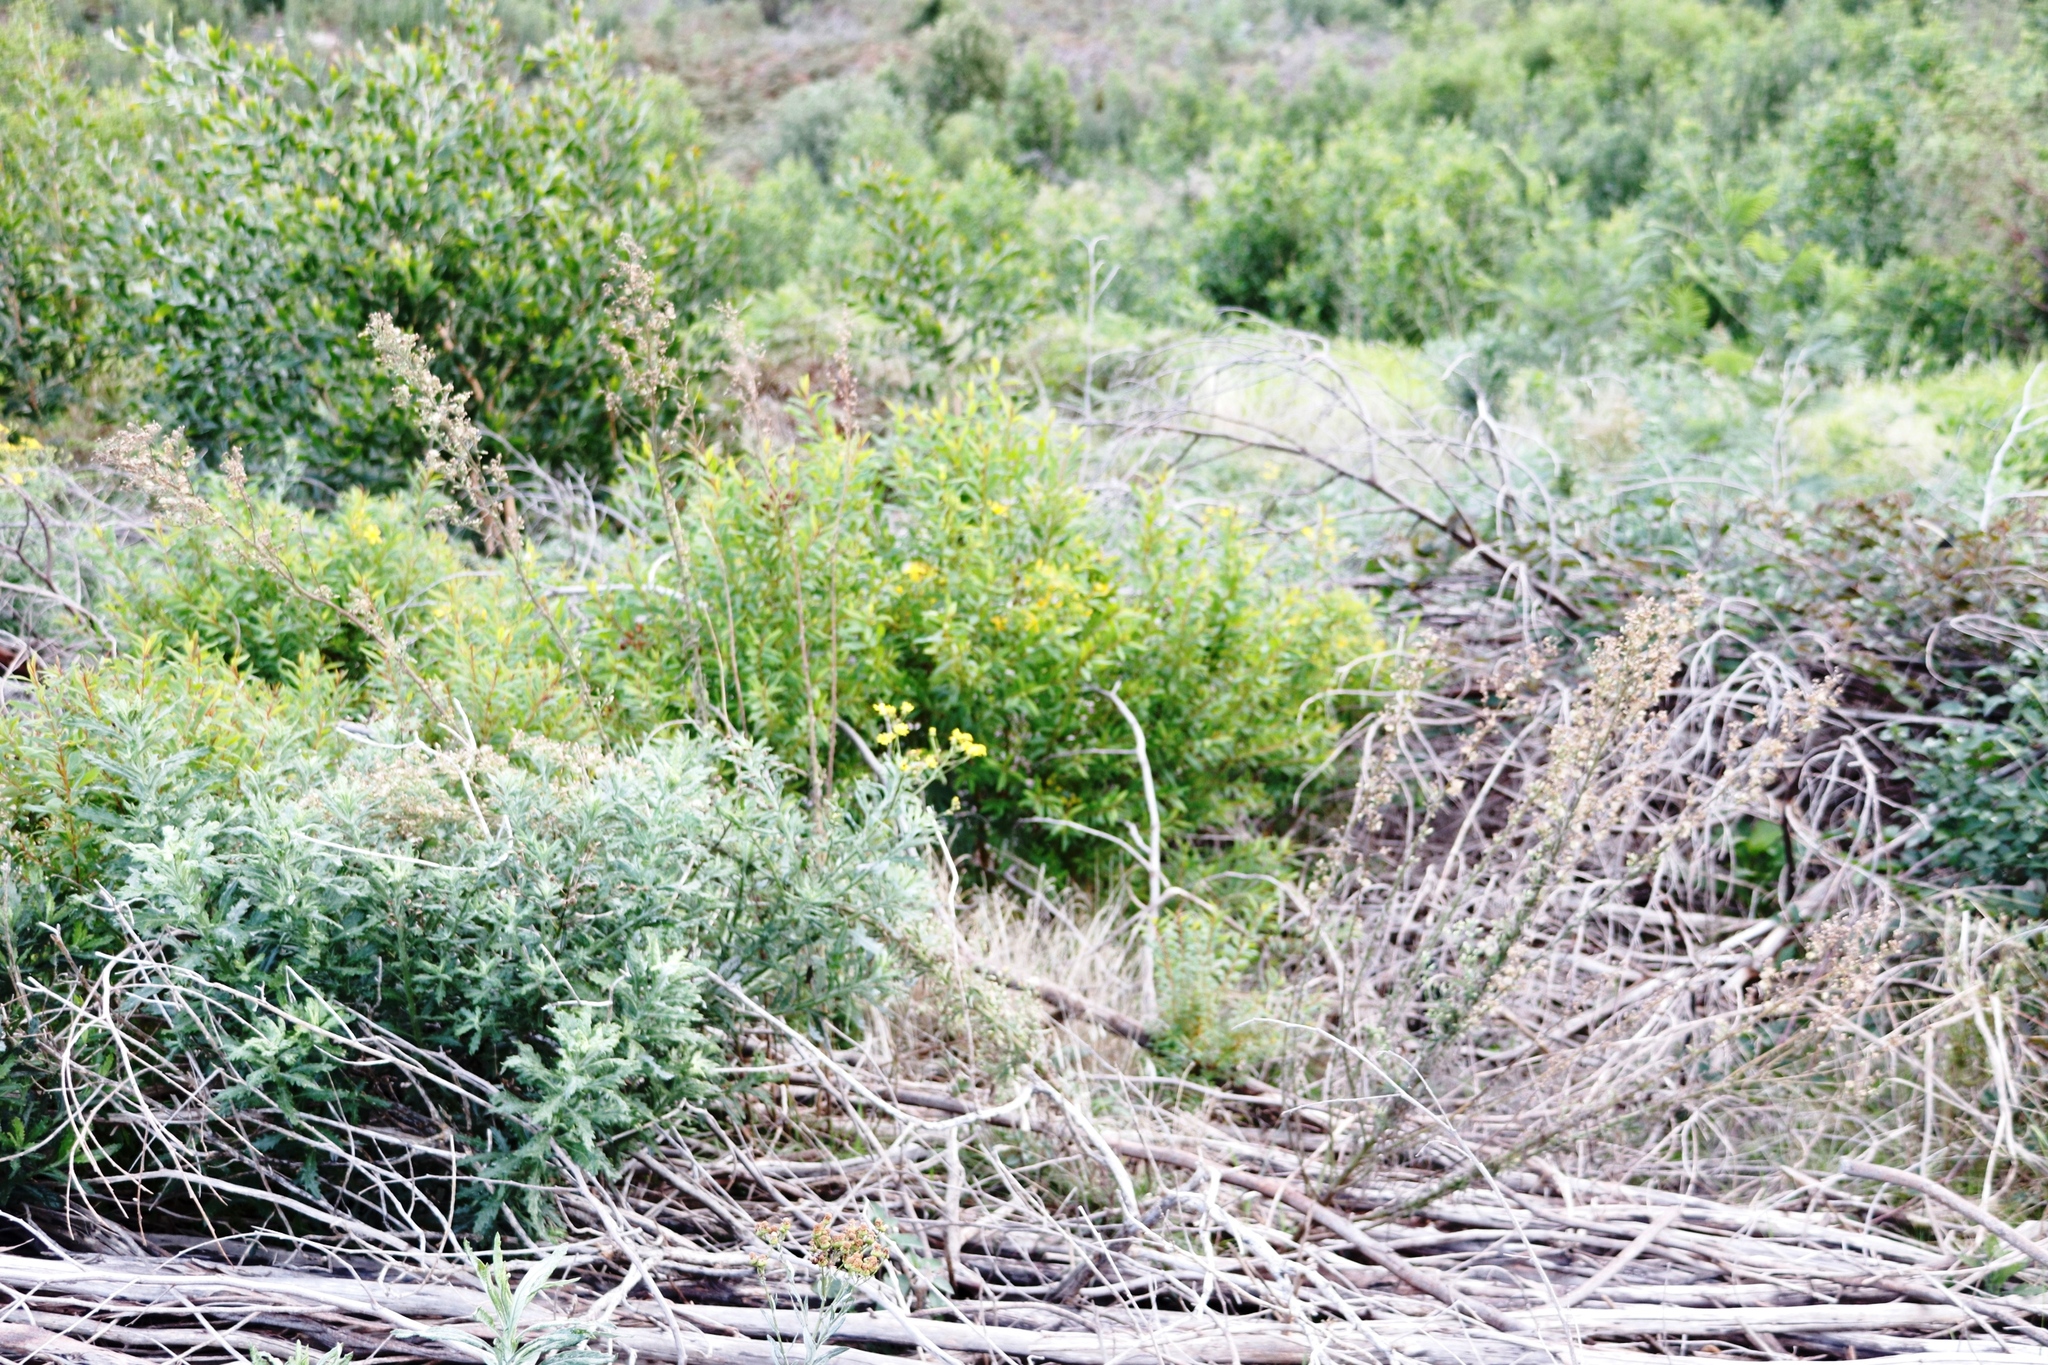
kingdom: Plantae
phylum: Tracheophyta
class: Magnoliopsida
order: Malpighiales
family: Hypericaceae
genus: Hypericum
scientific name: Hypericum canariense
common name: Canary island st. johnswort
